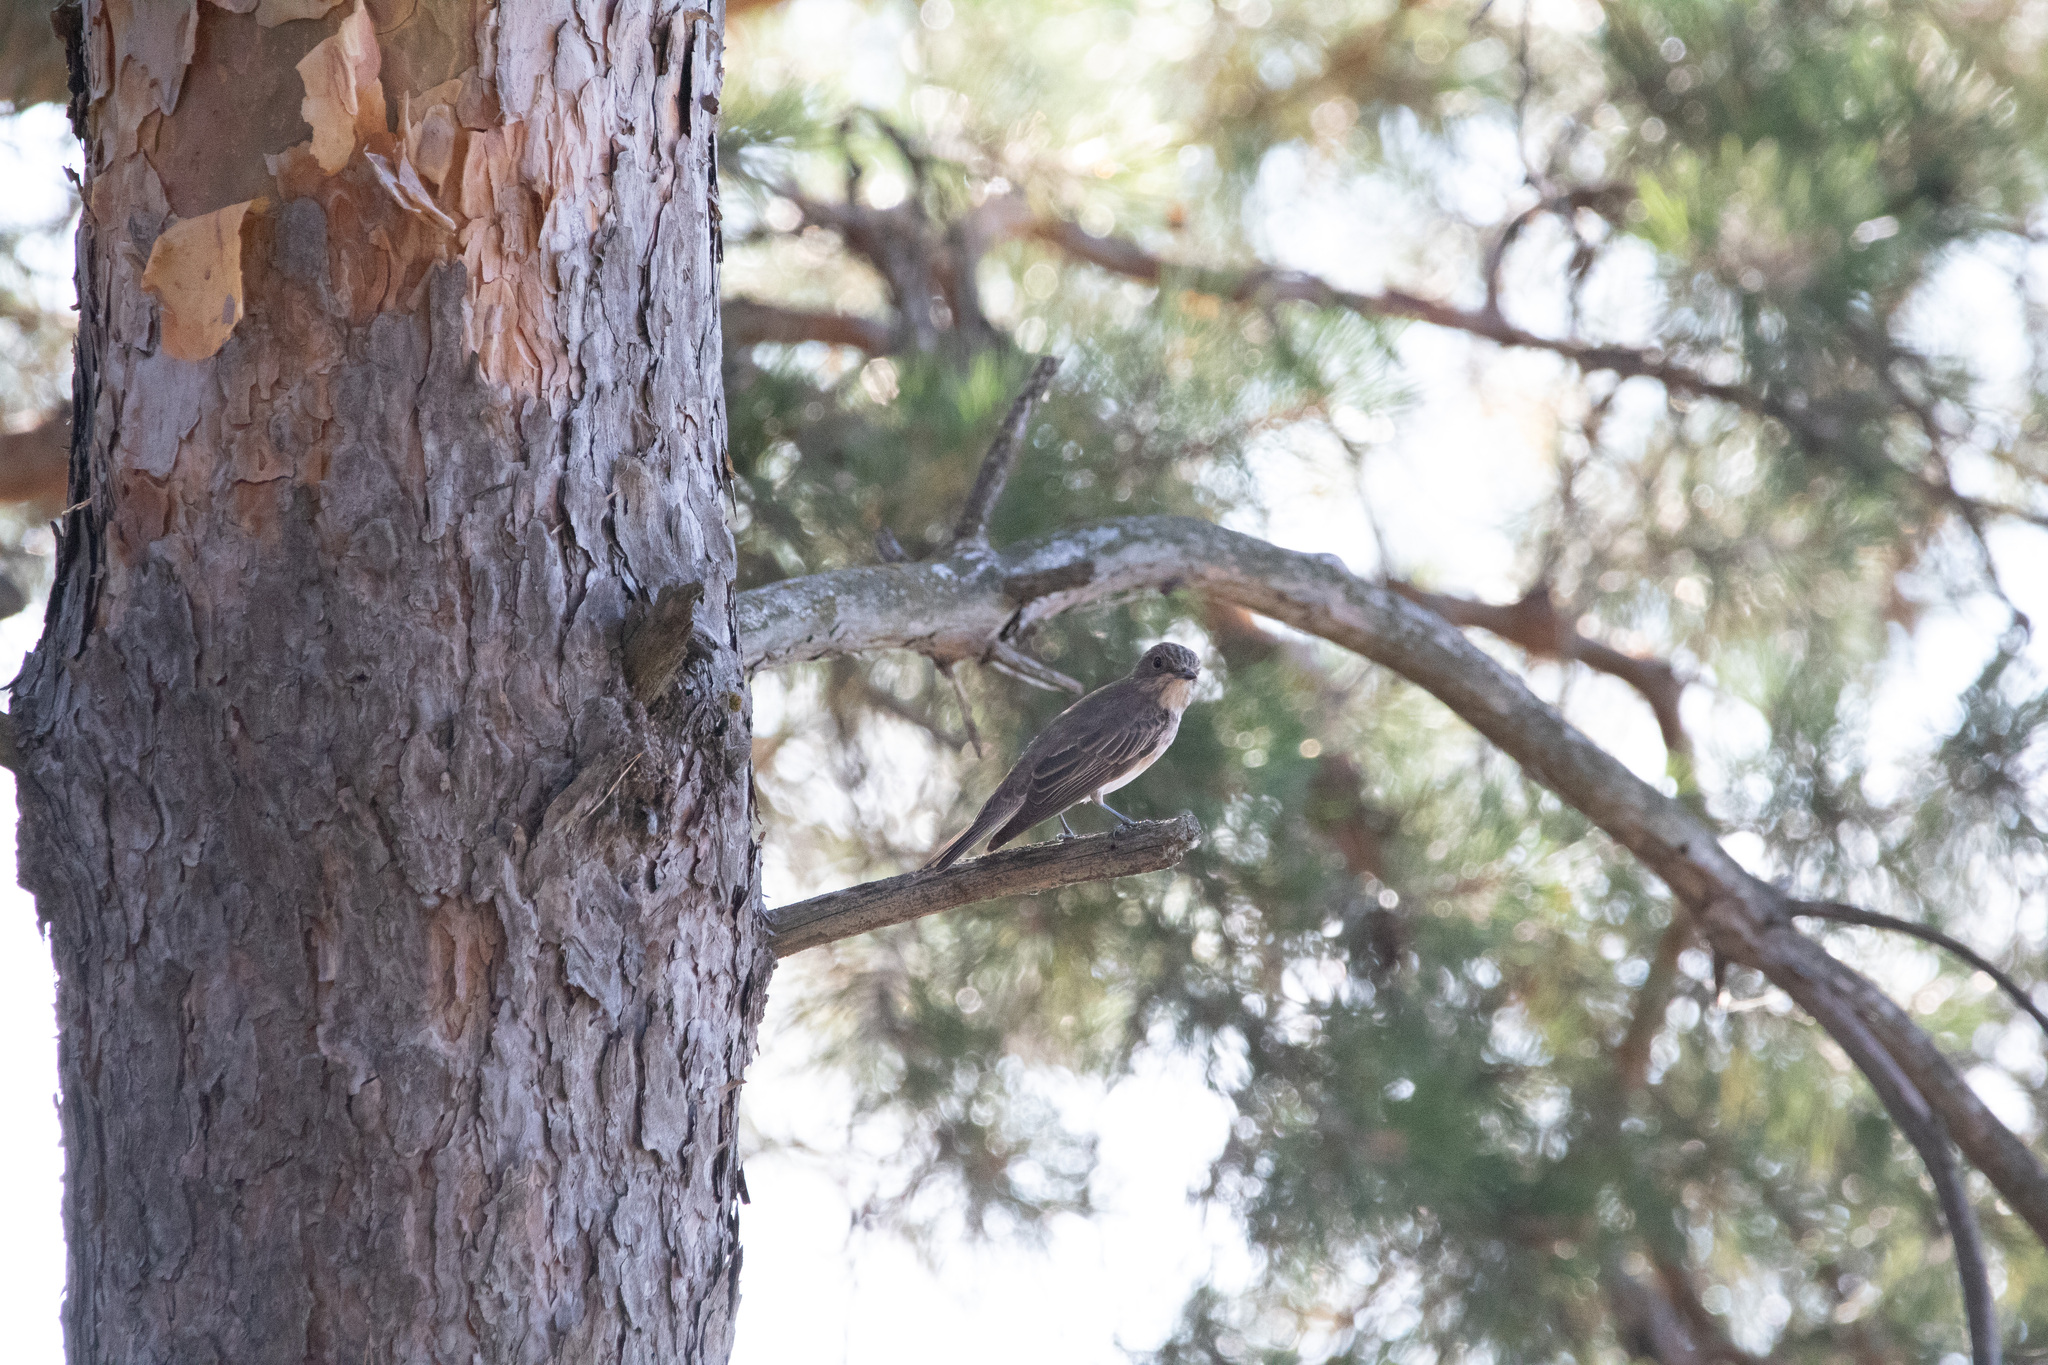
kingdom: Animalia
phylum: Chordata
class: Aves
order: Passeriformes
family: Muscicapidae
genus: Muscicapa
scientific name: Muscicapa striata
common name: Spotted flycatcher
